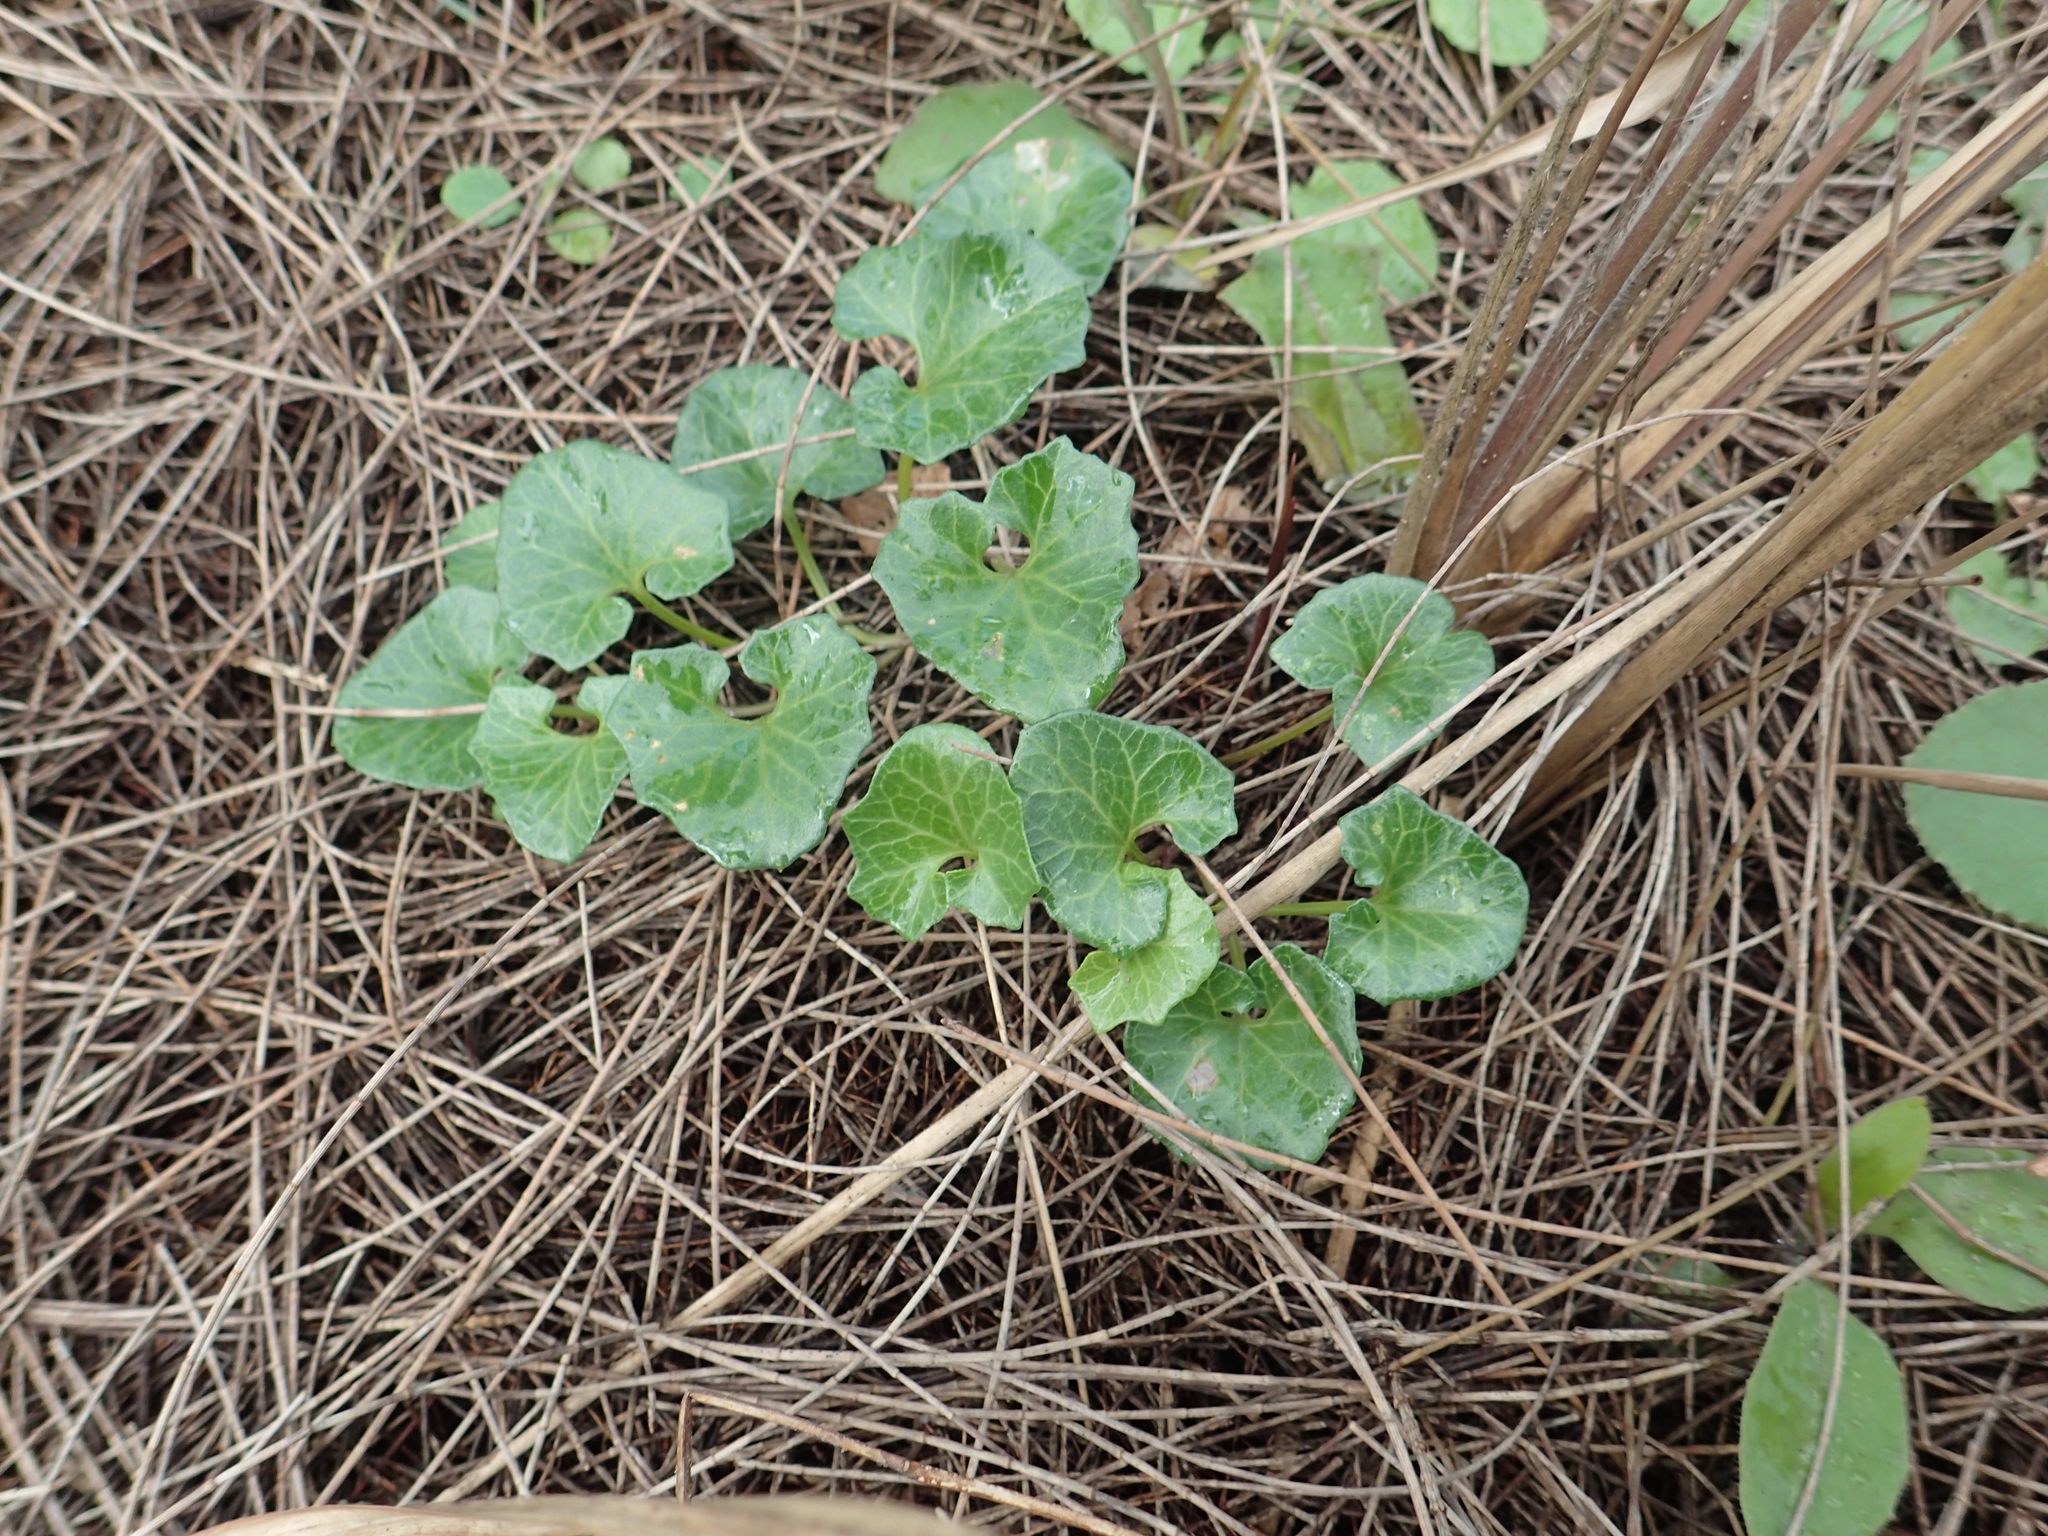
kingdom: Plantae
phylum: Tracheophyta
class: Magnoliopsida
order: Solanales
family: Convolvulaceae
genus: Calystegia
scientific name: Calystegia soldanella
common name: Sea bindweed
